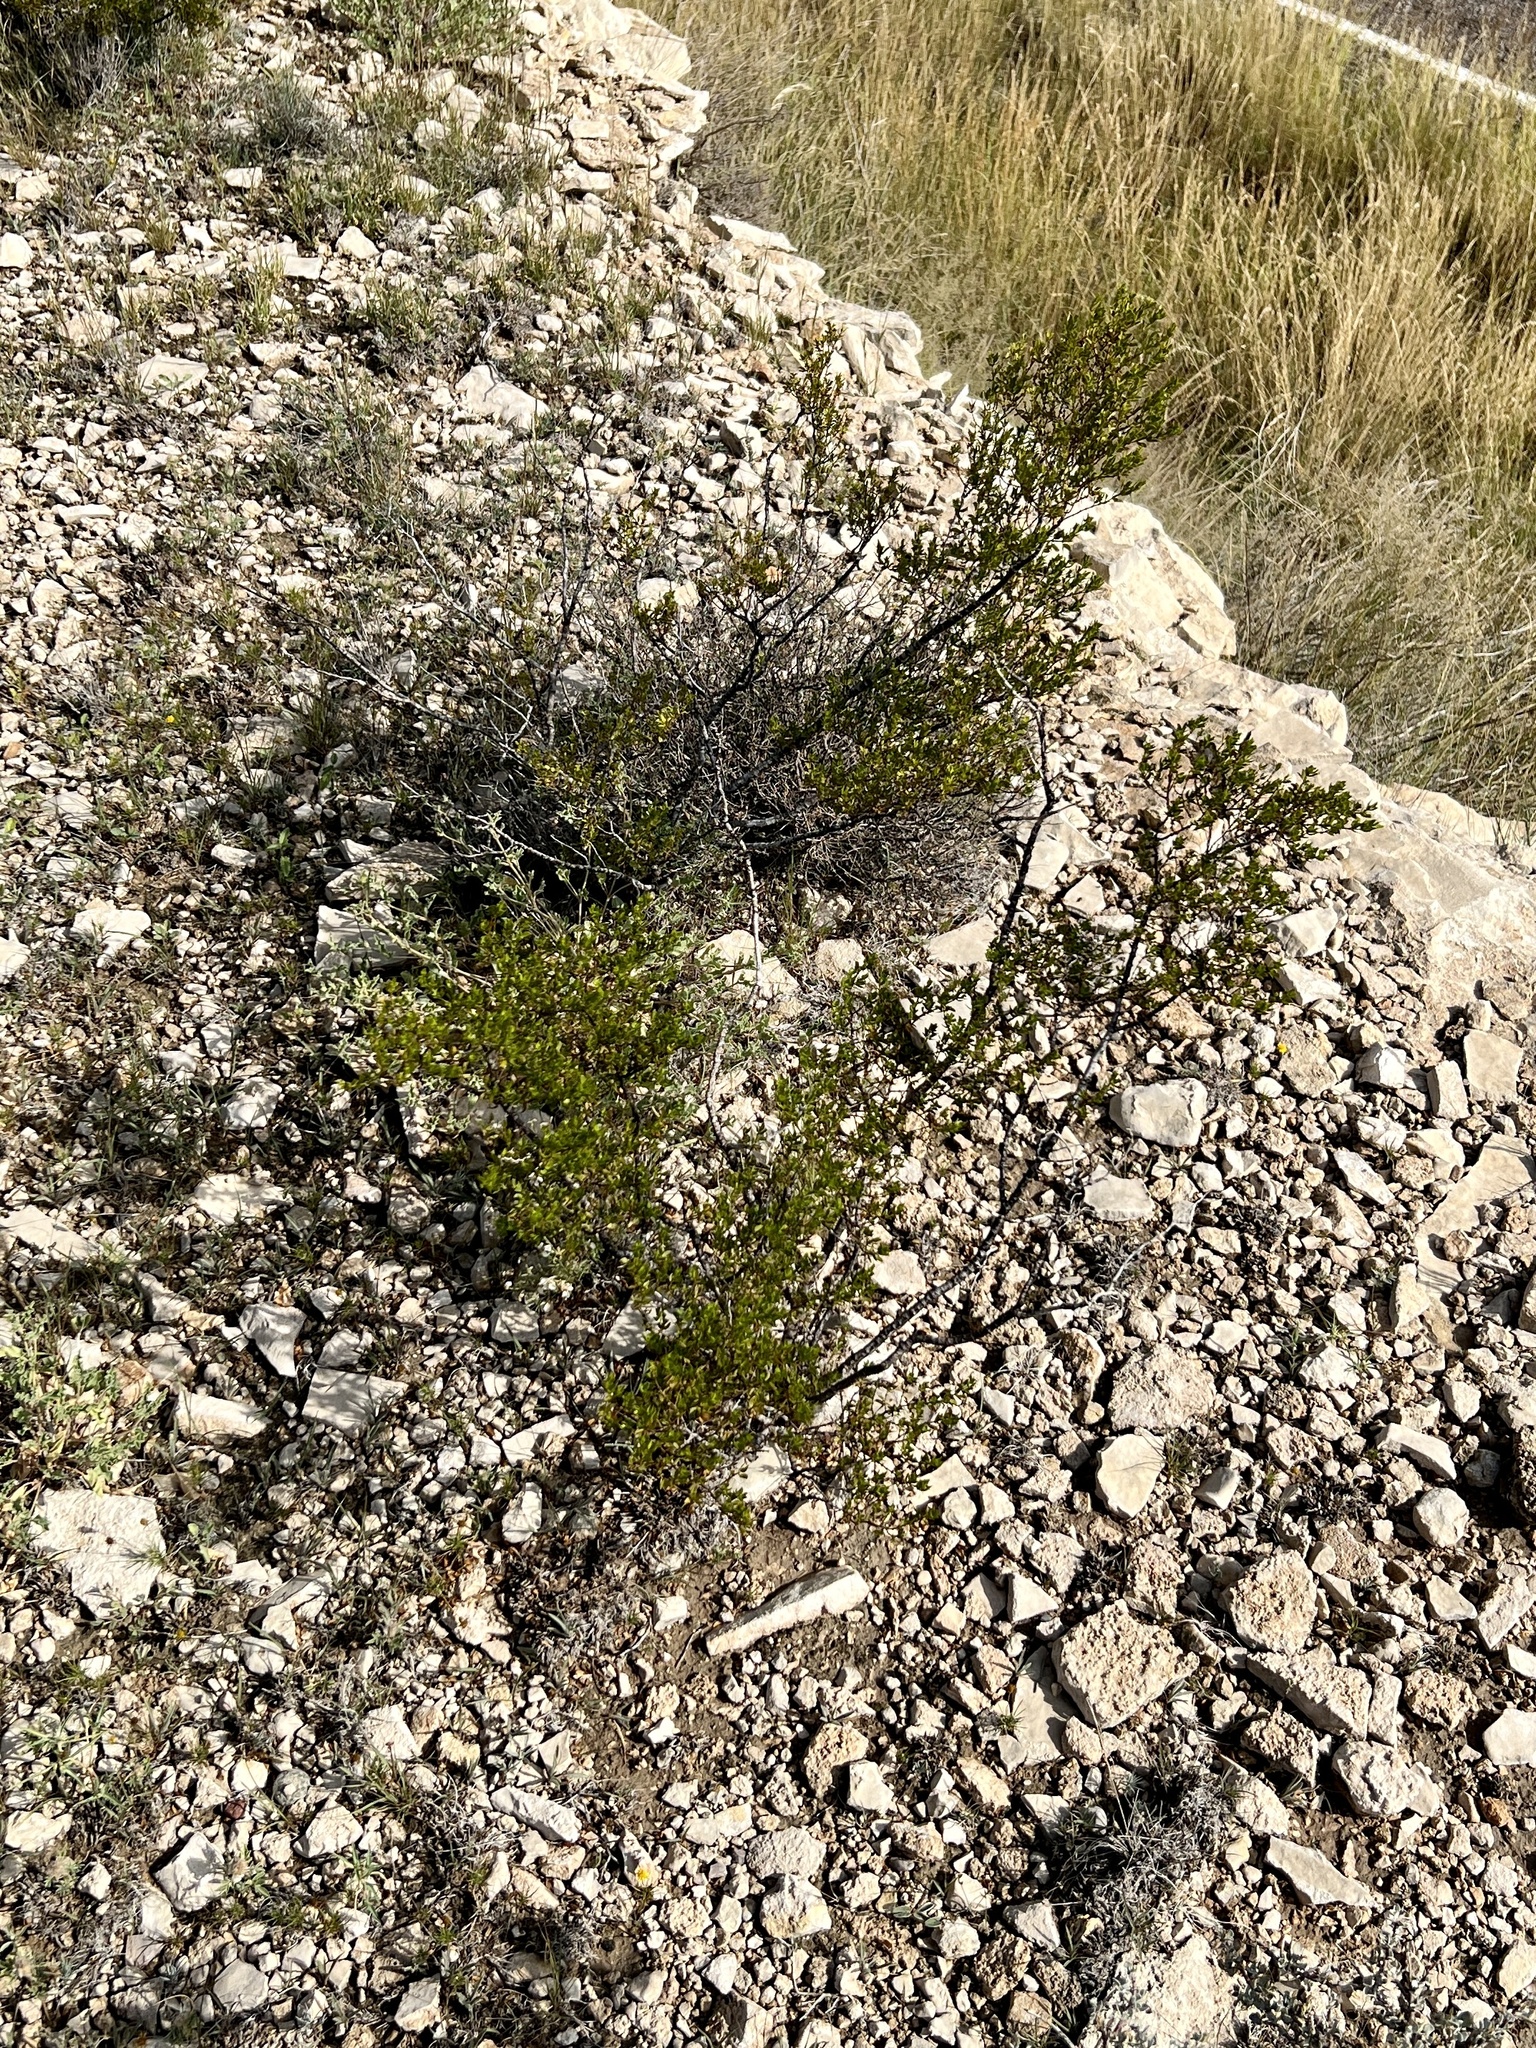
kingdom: Plantae
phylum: Tracheophyta
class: Magnoliopsida
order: Zygophyllales
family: Zygophyllaceae
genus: Larrea
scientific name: Larrea tridentata
